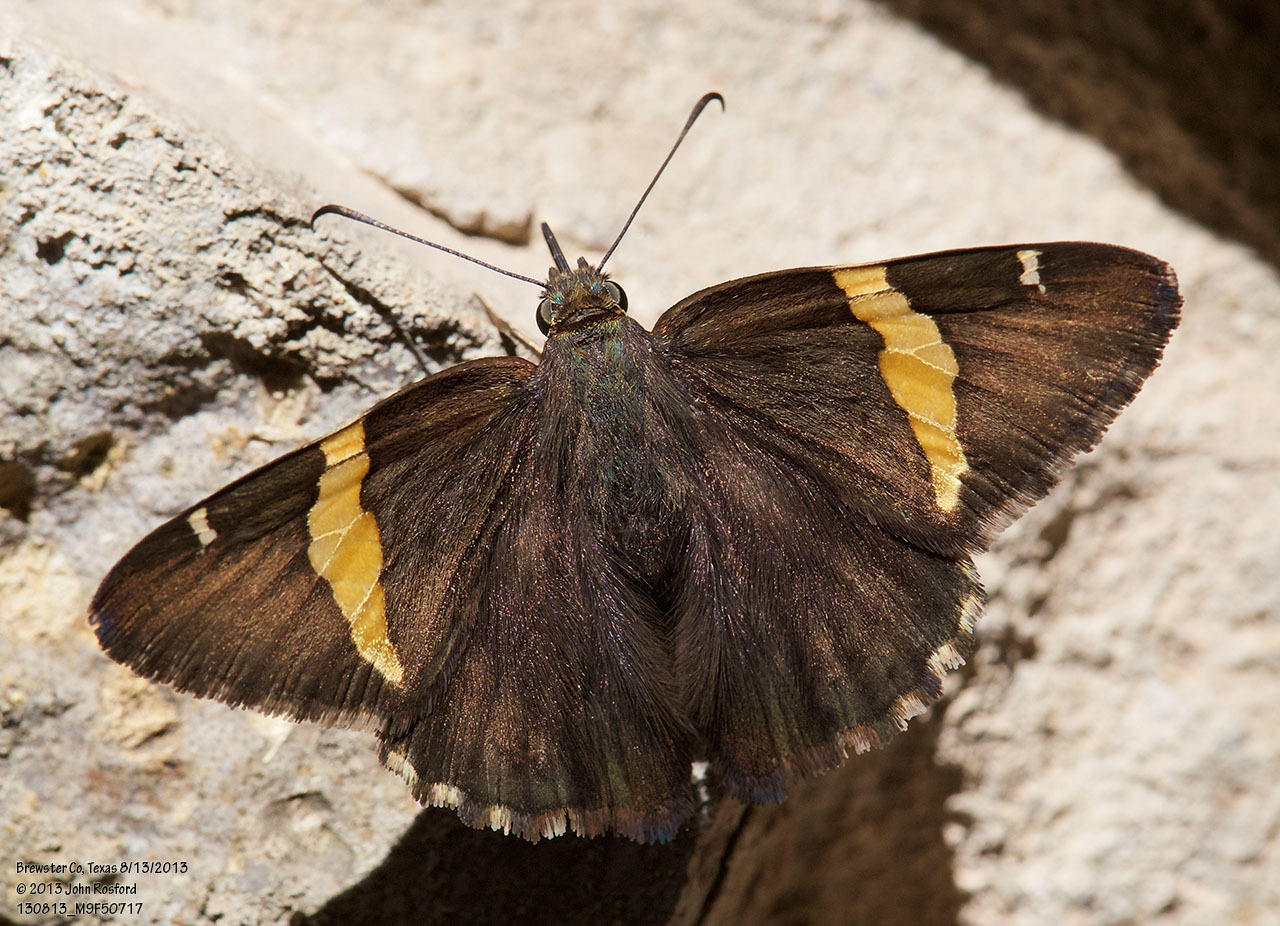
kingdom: Animalia
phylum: Arthropoda
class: Arachnida
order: Scorpiones
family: Bothriuridae
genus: Telegonus
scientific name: Telegonus cellus
